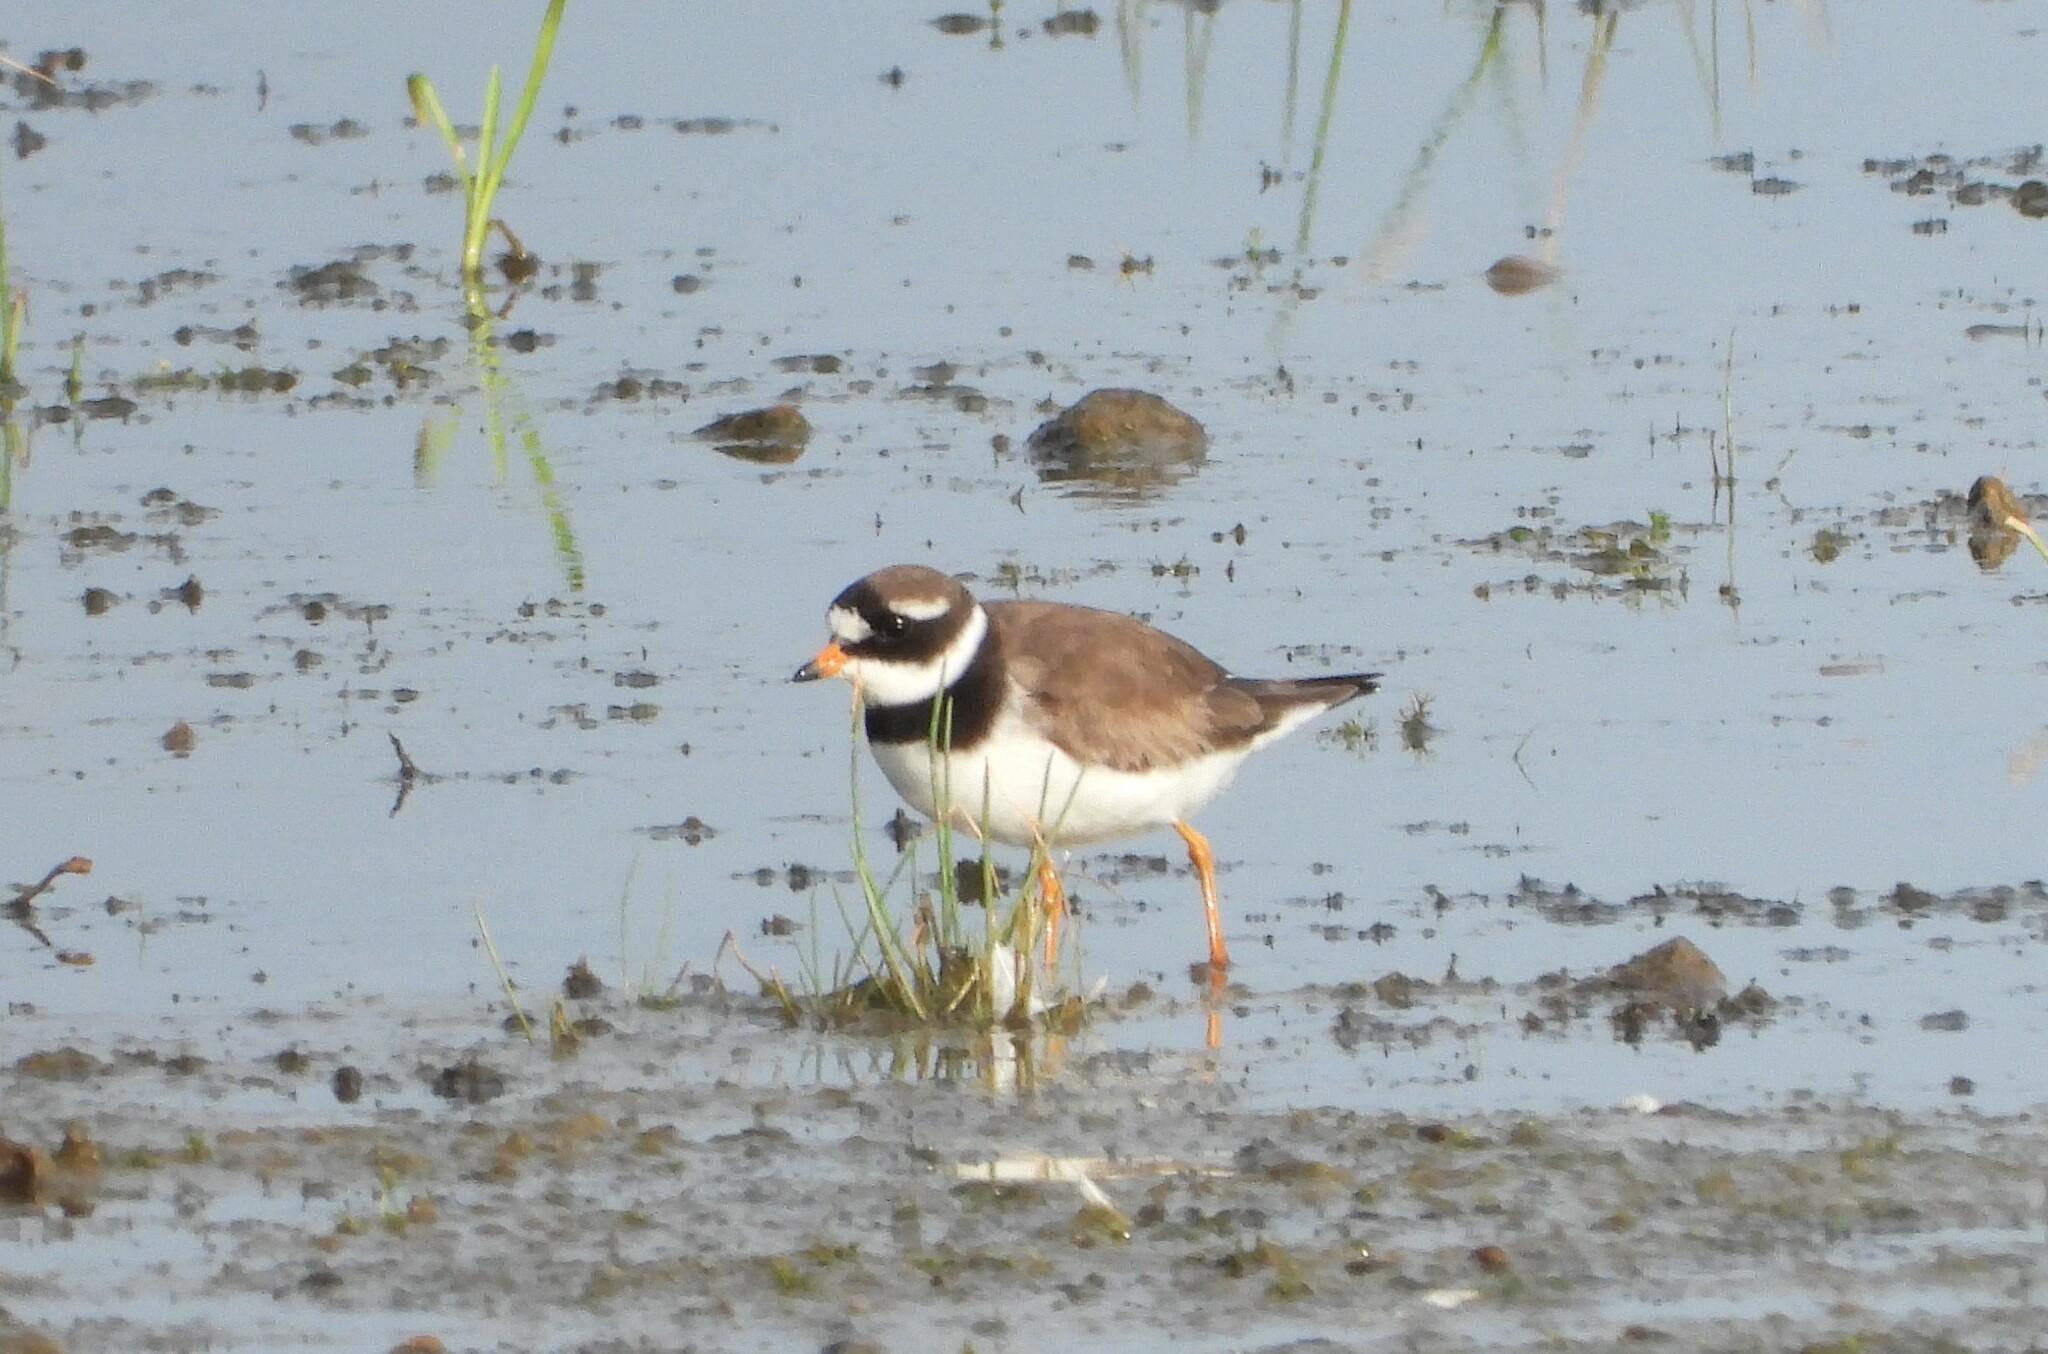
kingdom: Animalia
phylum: Chordata
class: Aves
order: Charadriiformes
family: Charadriidae
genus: Charadrius
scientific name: Charadrius hiaticula
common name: Common ringed plover
